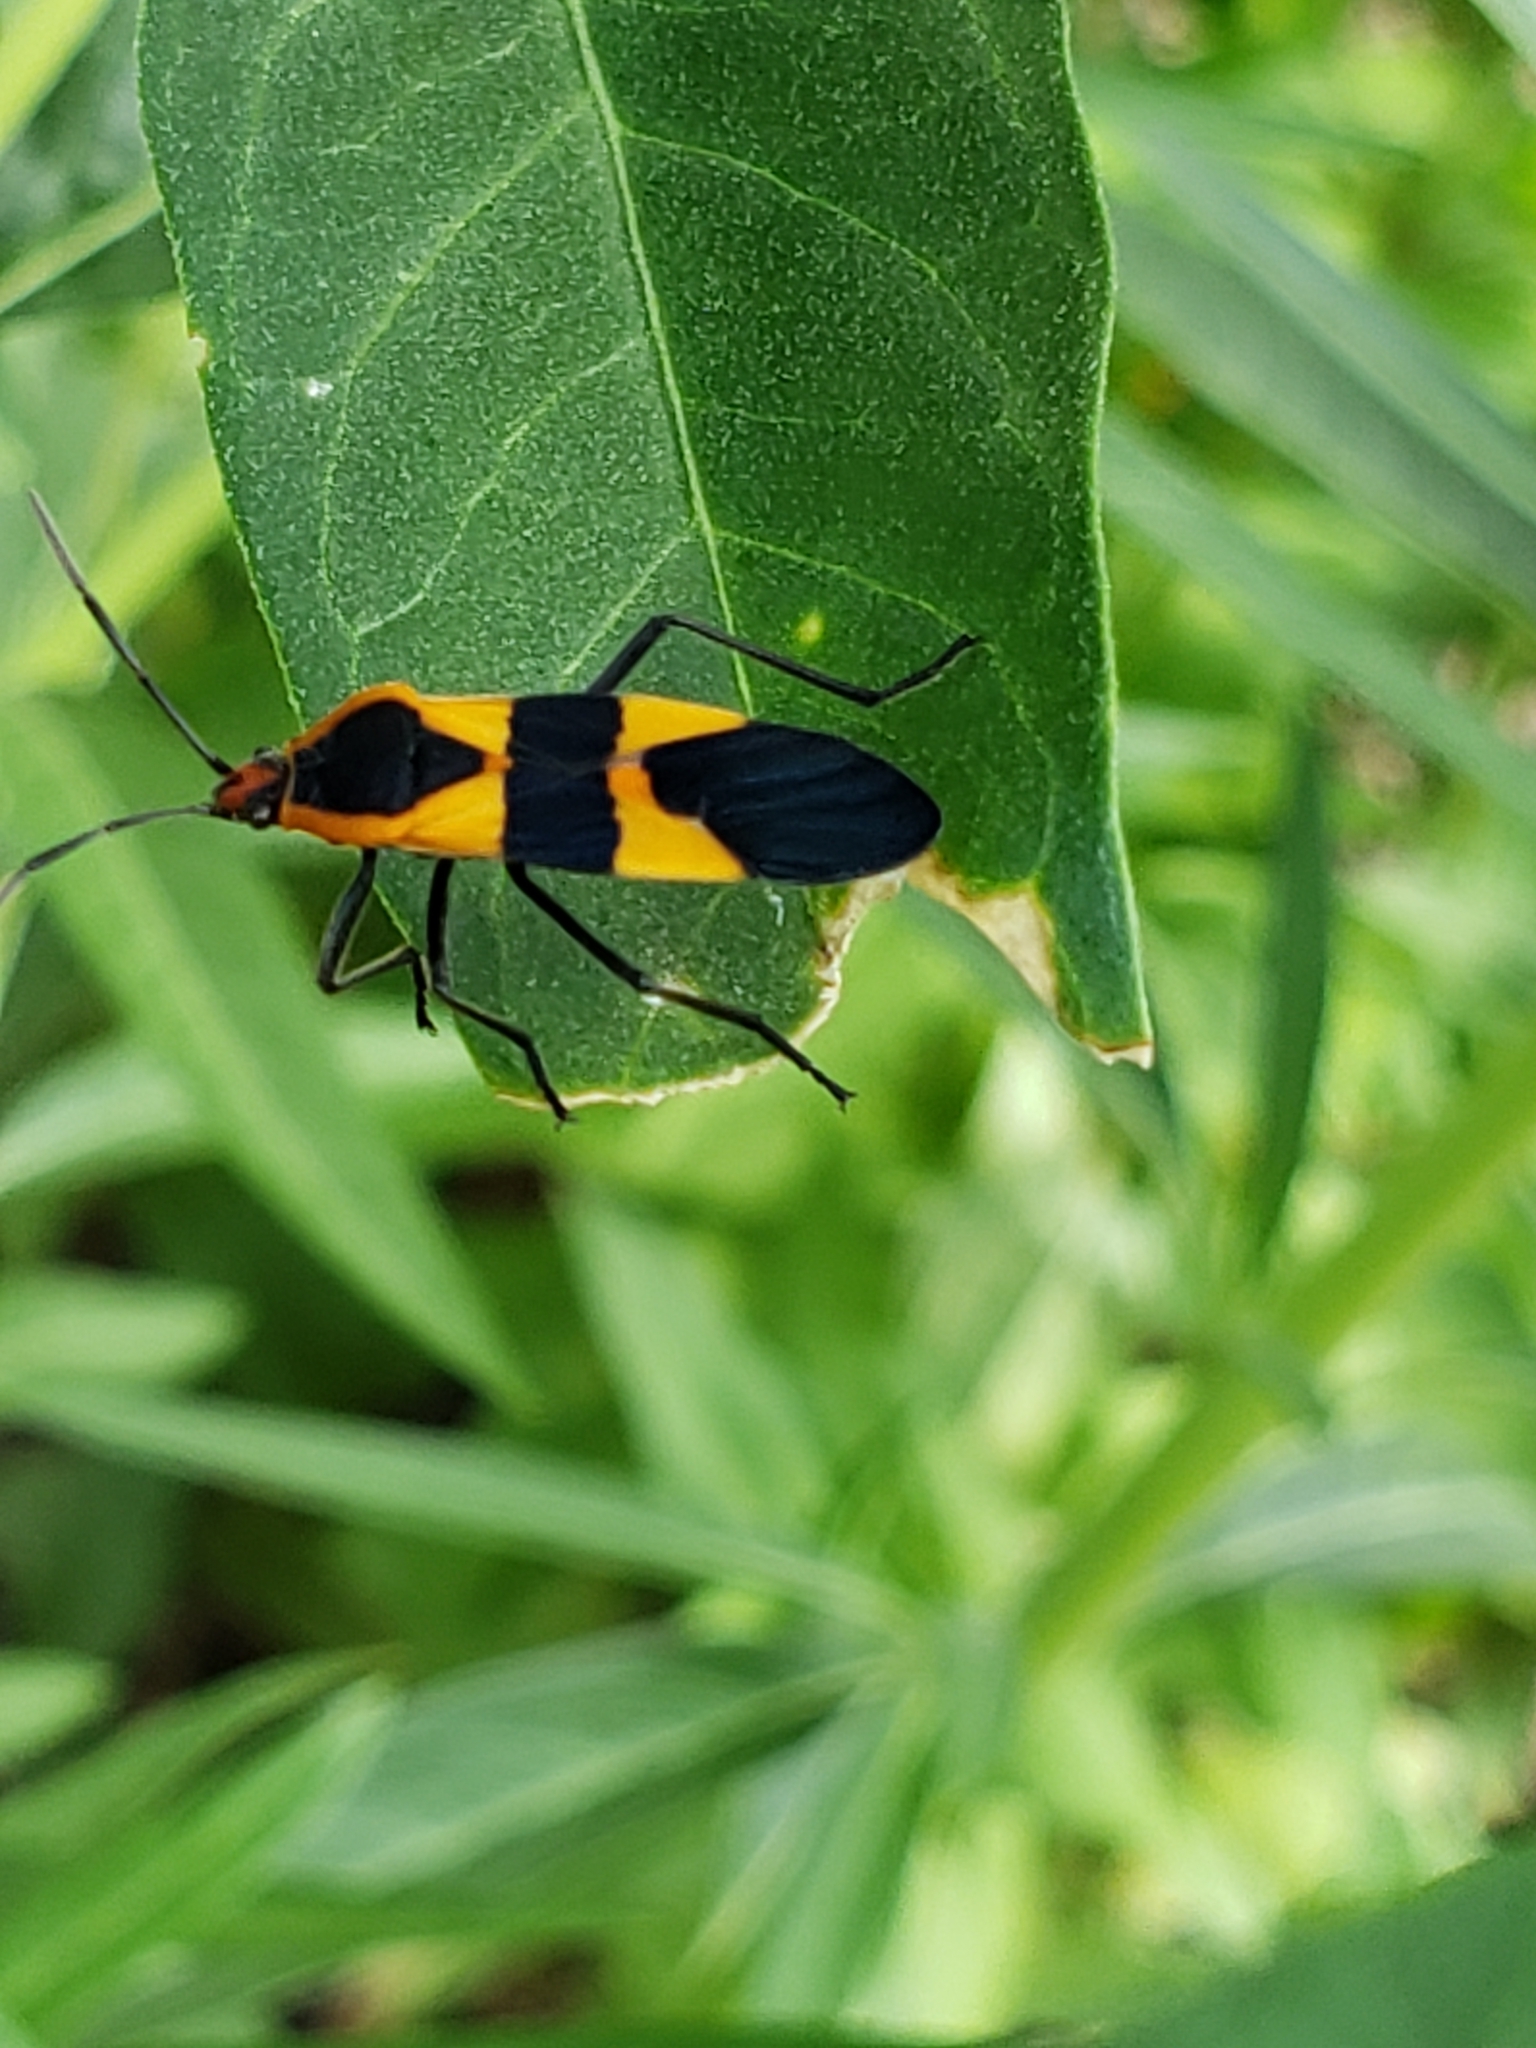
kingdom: Animalia
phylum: Arthropoda
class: Insecta
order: Hemiptera
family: Lygaeidae
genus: Oncopeltus
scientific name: Oncopeltus fasciatus
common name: Large milkweed bug
